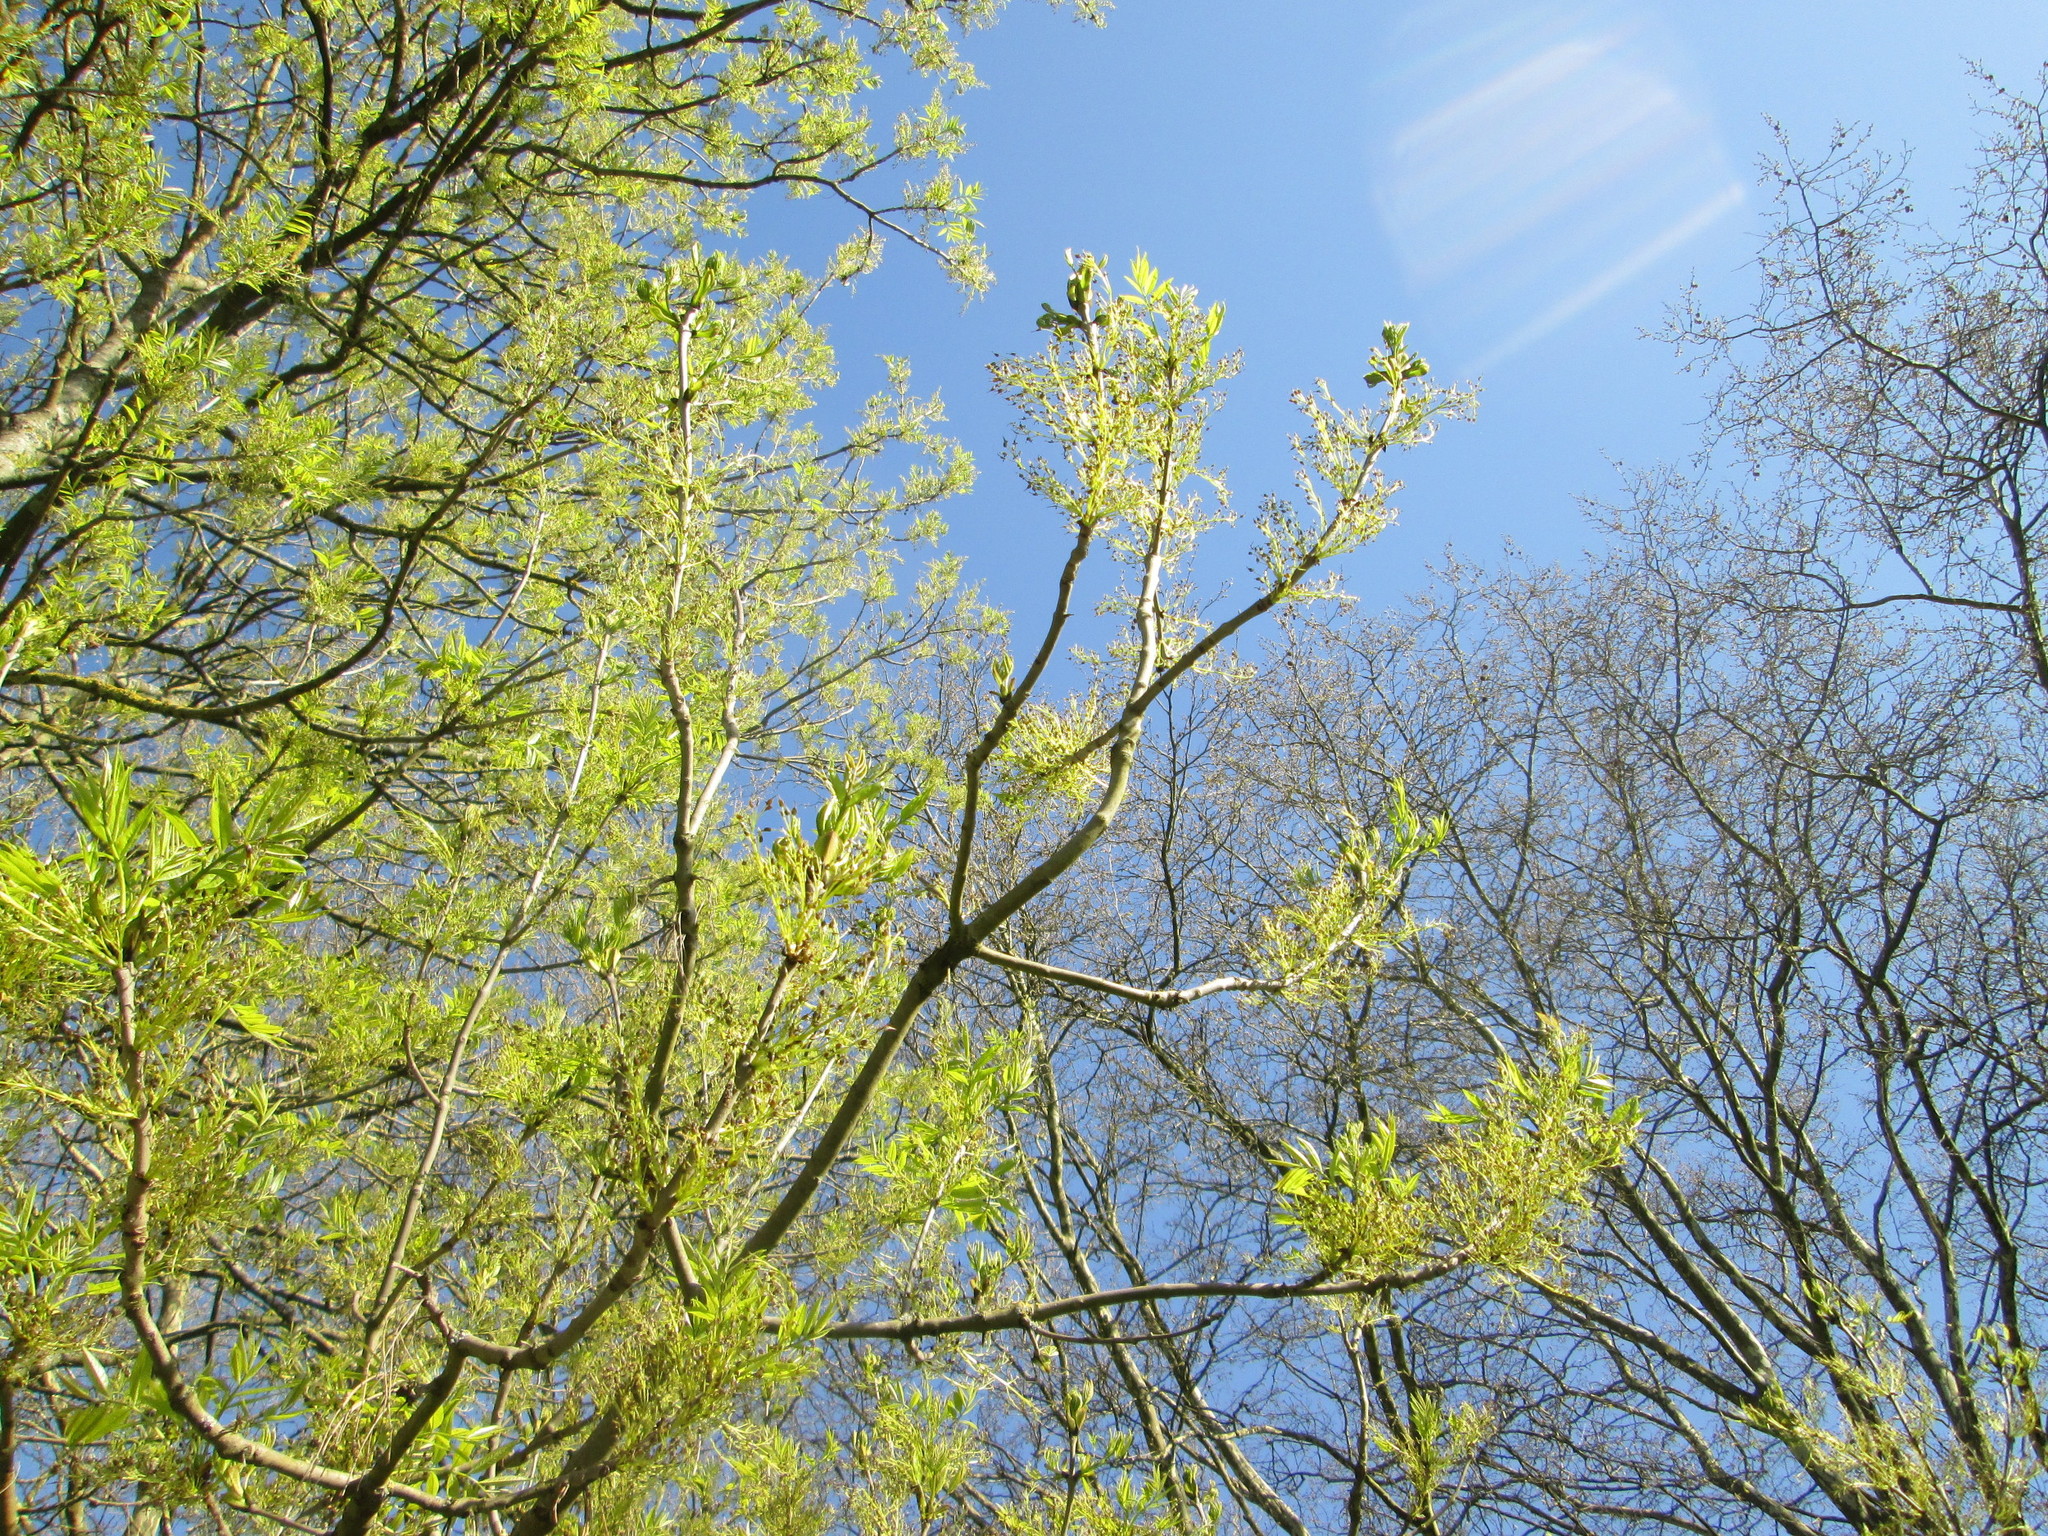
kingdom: Plantae
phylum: Tracheophyta
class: Magnoliopsida
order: Lamiales
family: Oleaceae
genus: Fraxinus
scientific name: Fraxinus excelsior
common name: European ash
